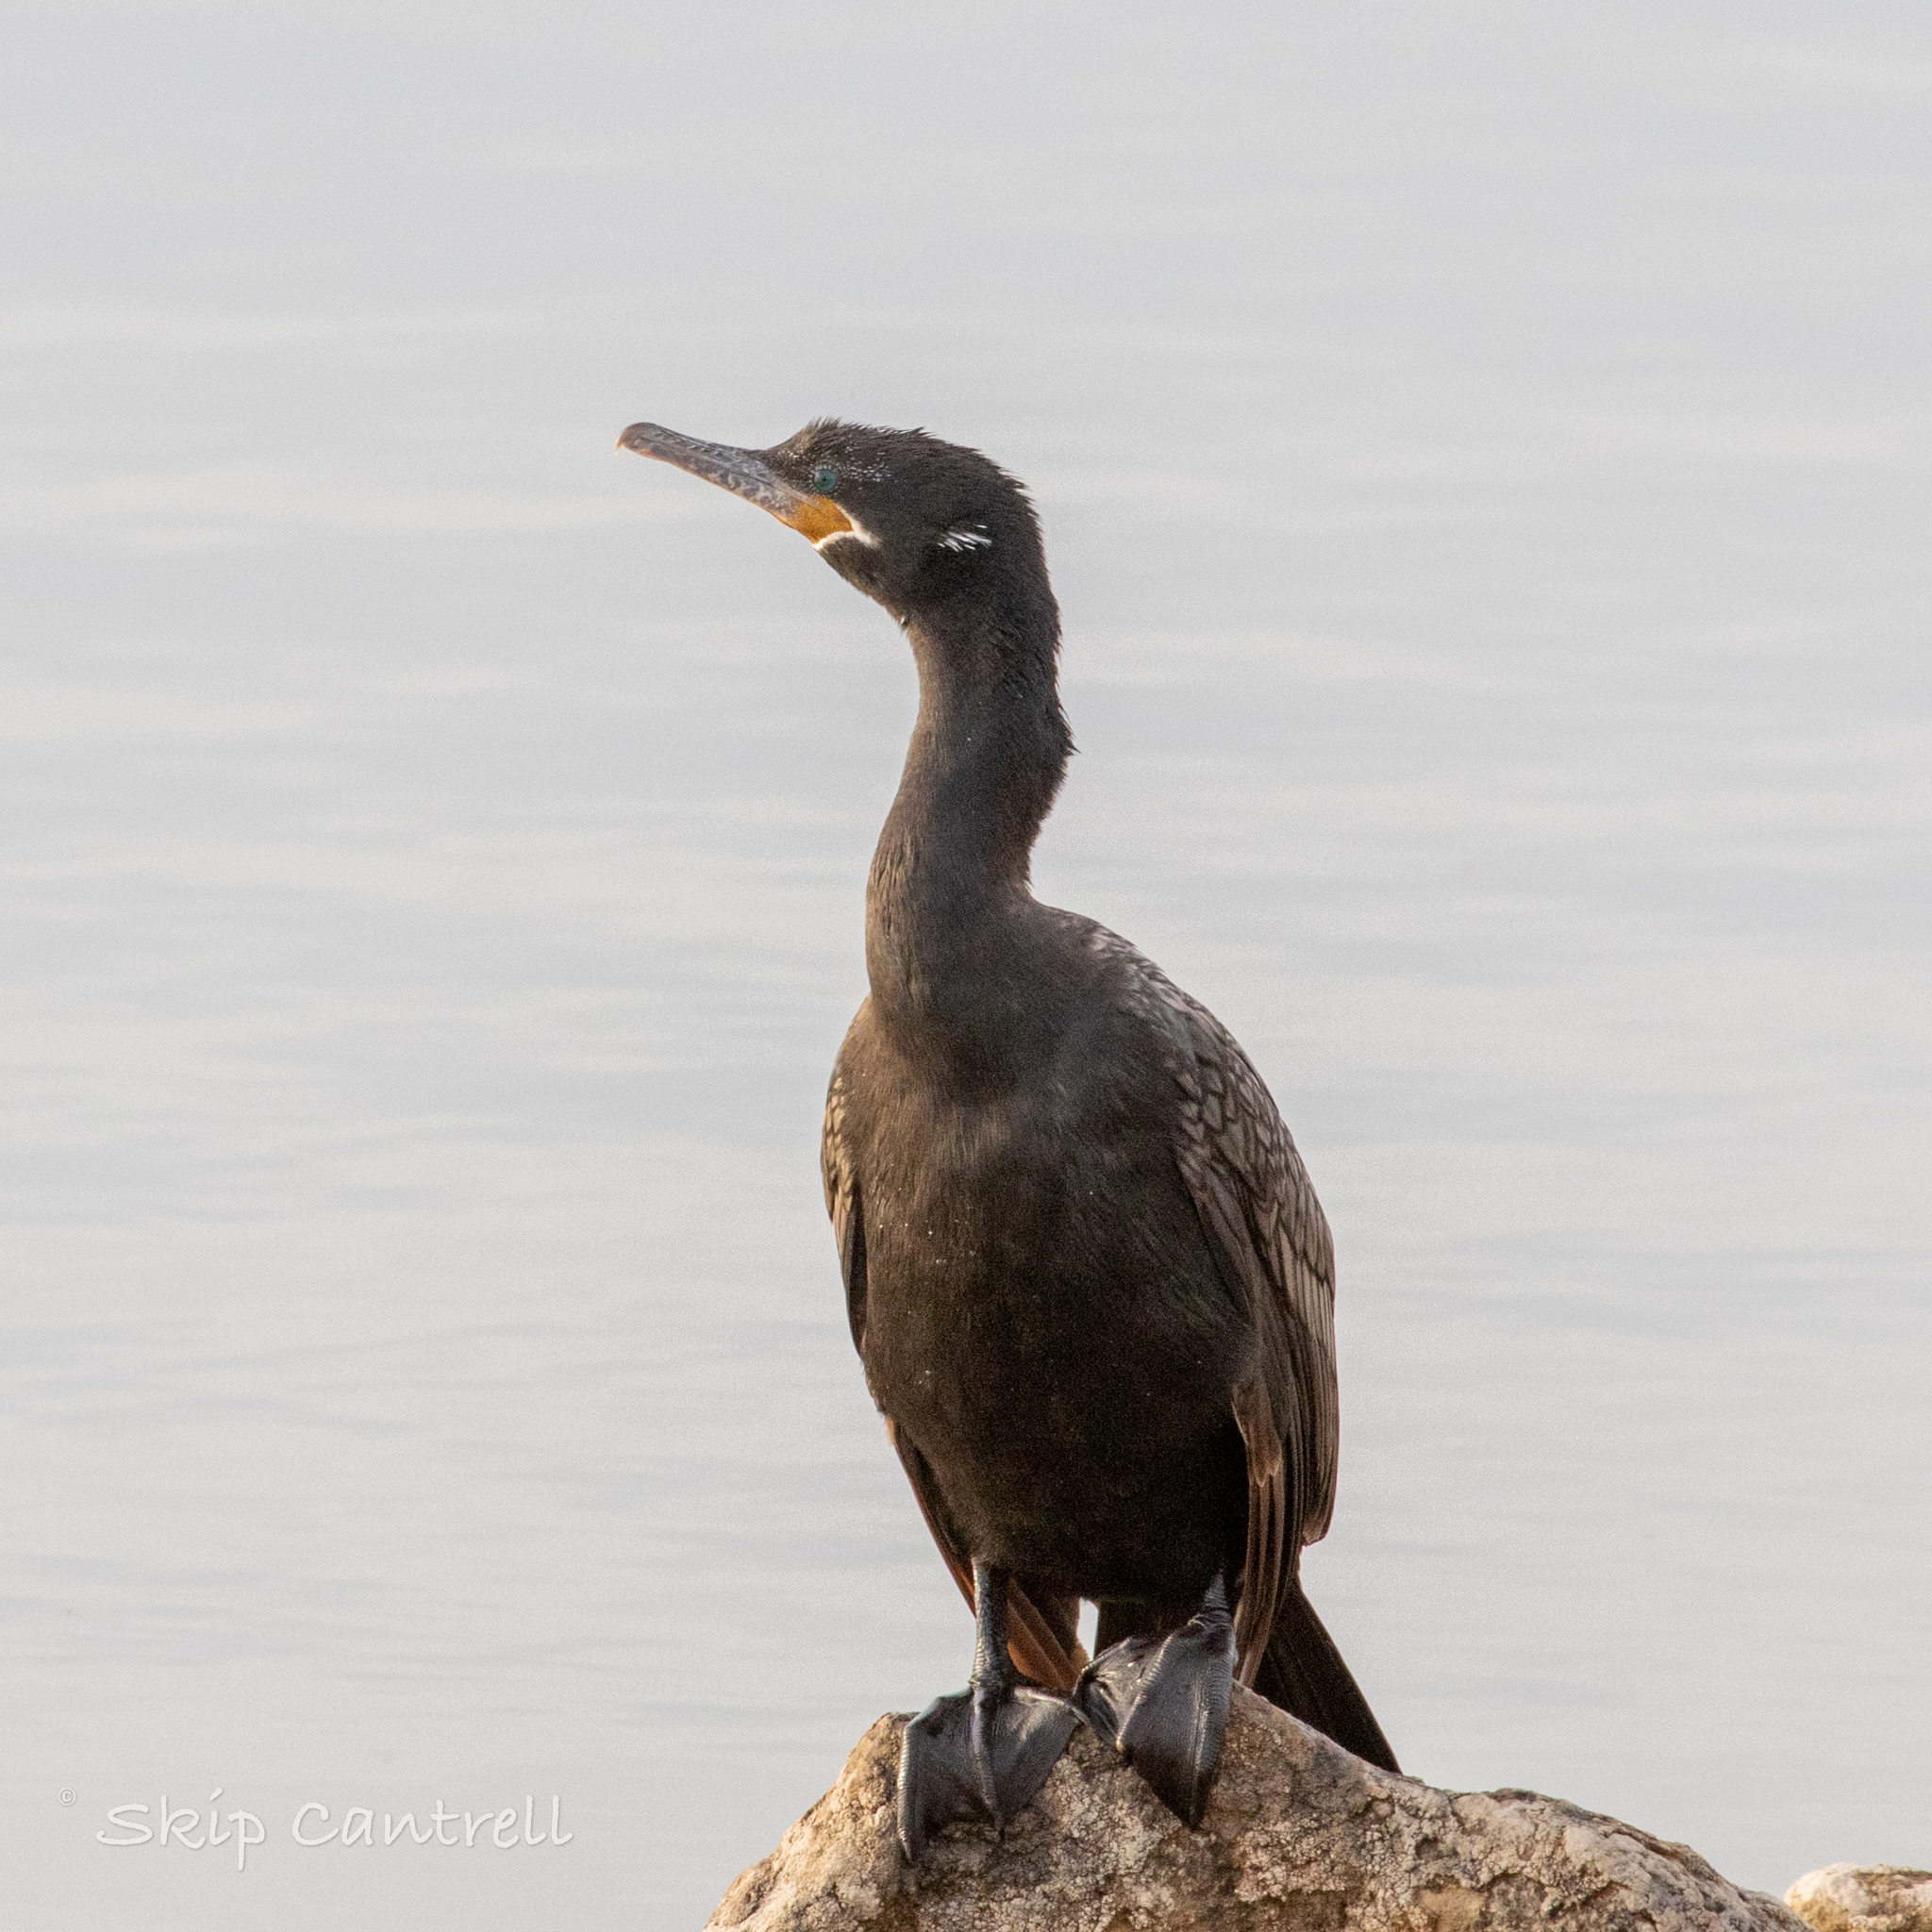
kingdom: Animalia
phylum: Chordata
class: Aves
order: Suliformes
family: Phalacrocoracidae
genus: Phalacrocorax
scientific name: Phalacrocorax brasilianus
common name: Neotropic cormorant
